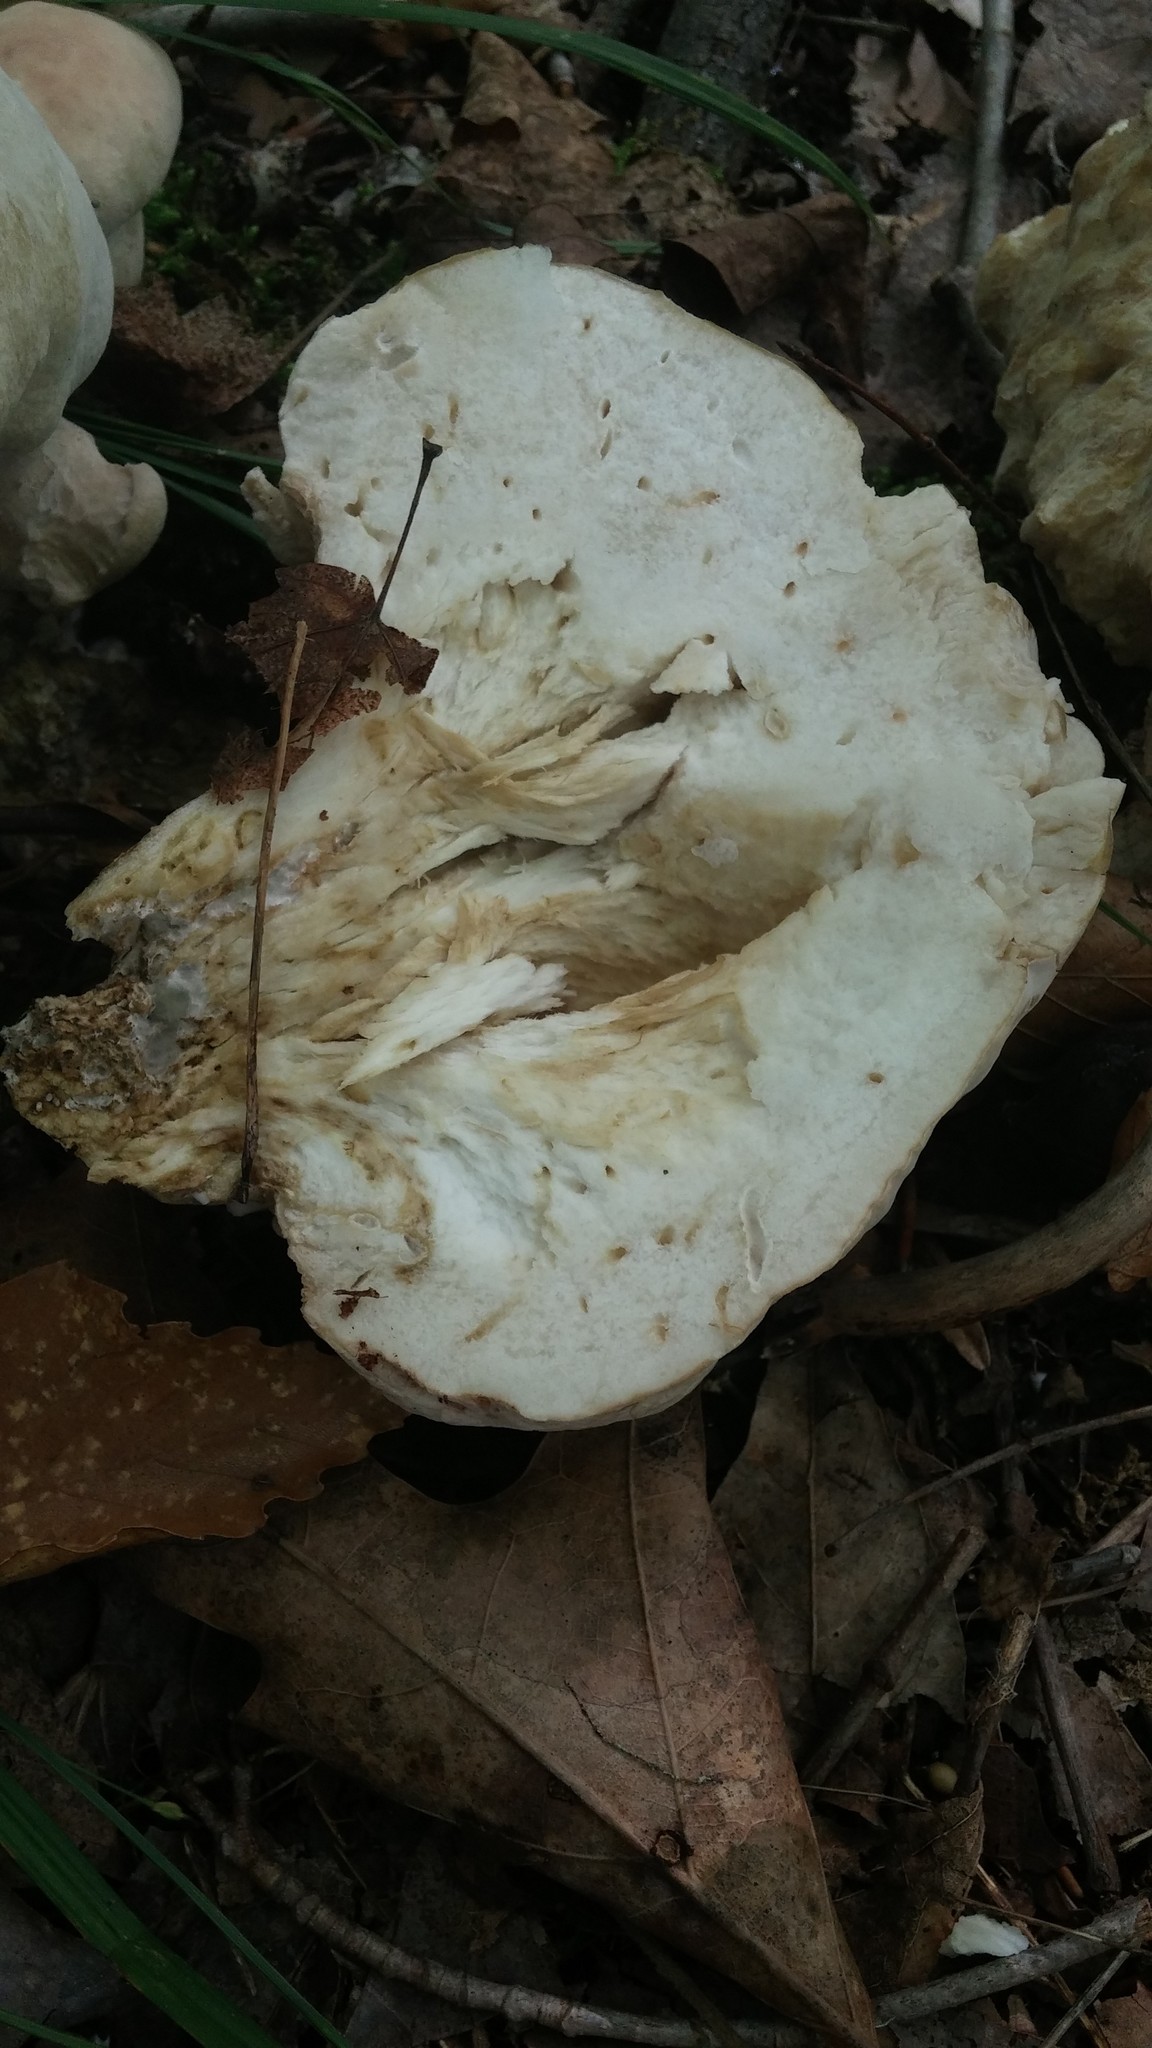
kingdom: Fungi
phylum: Basidiomycota
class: Agaricomycetes
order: Boletales
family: Boletaceae
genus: Tylopilus
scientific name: Tylopilus rubrobrunneus
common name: Reddish brown bitter bolete
